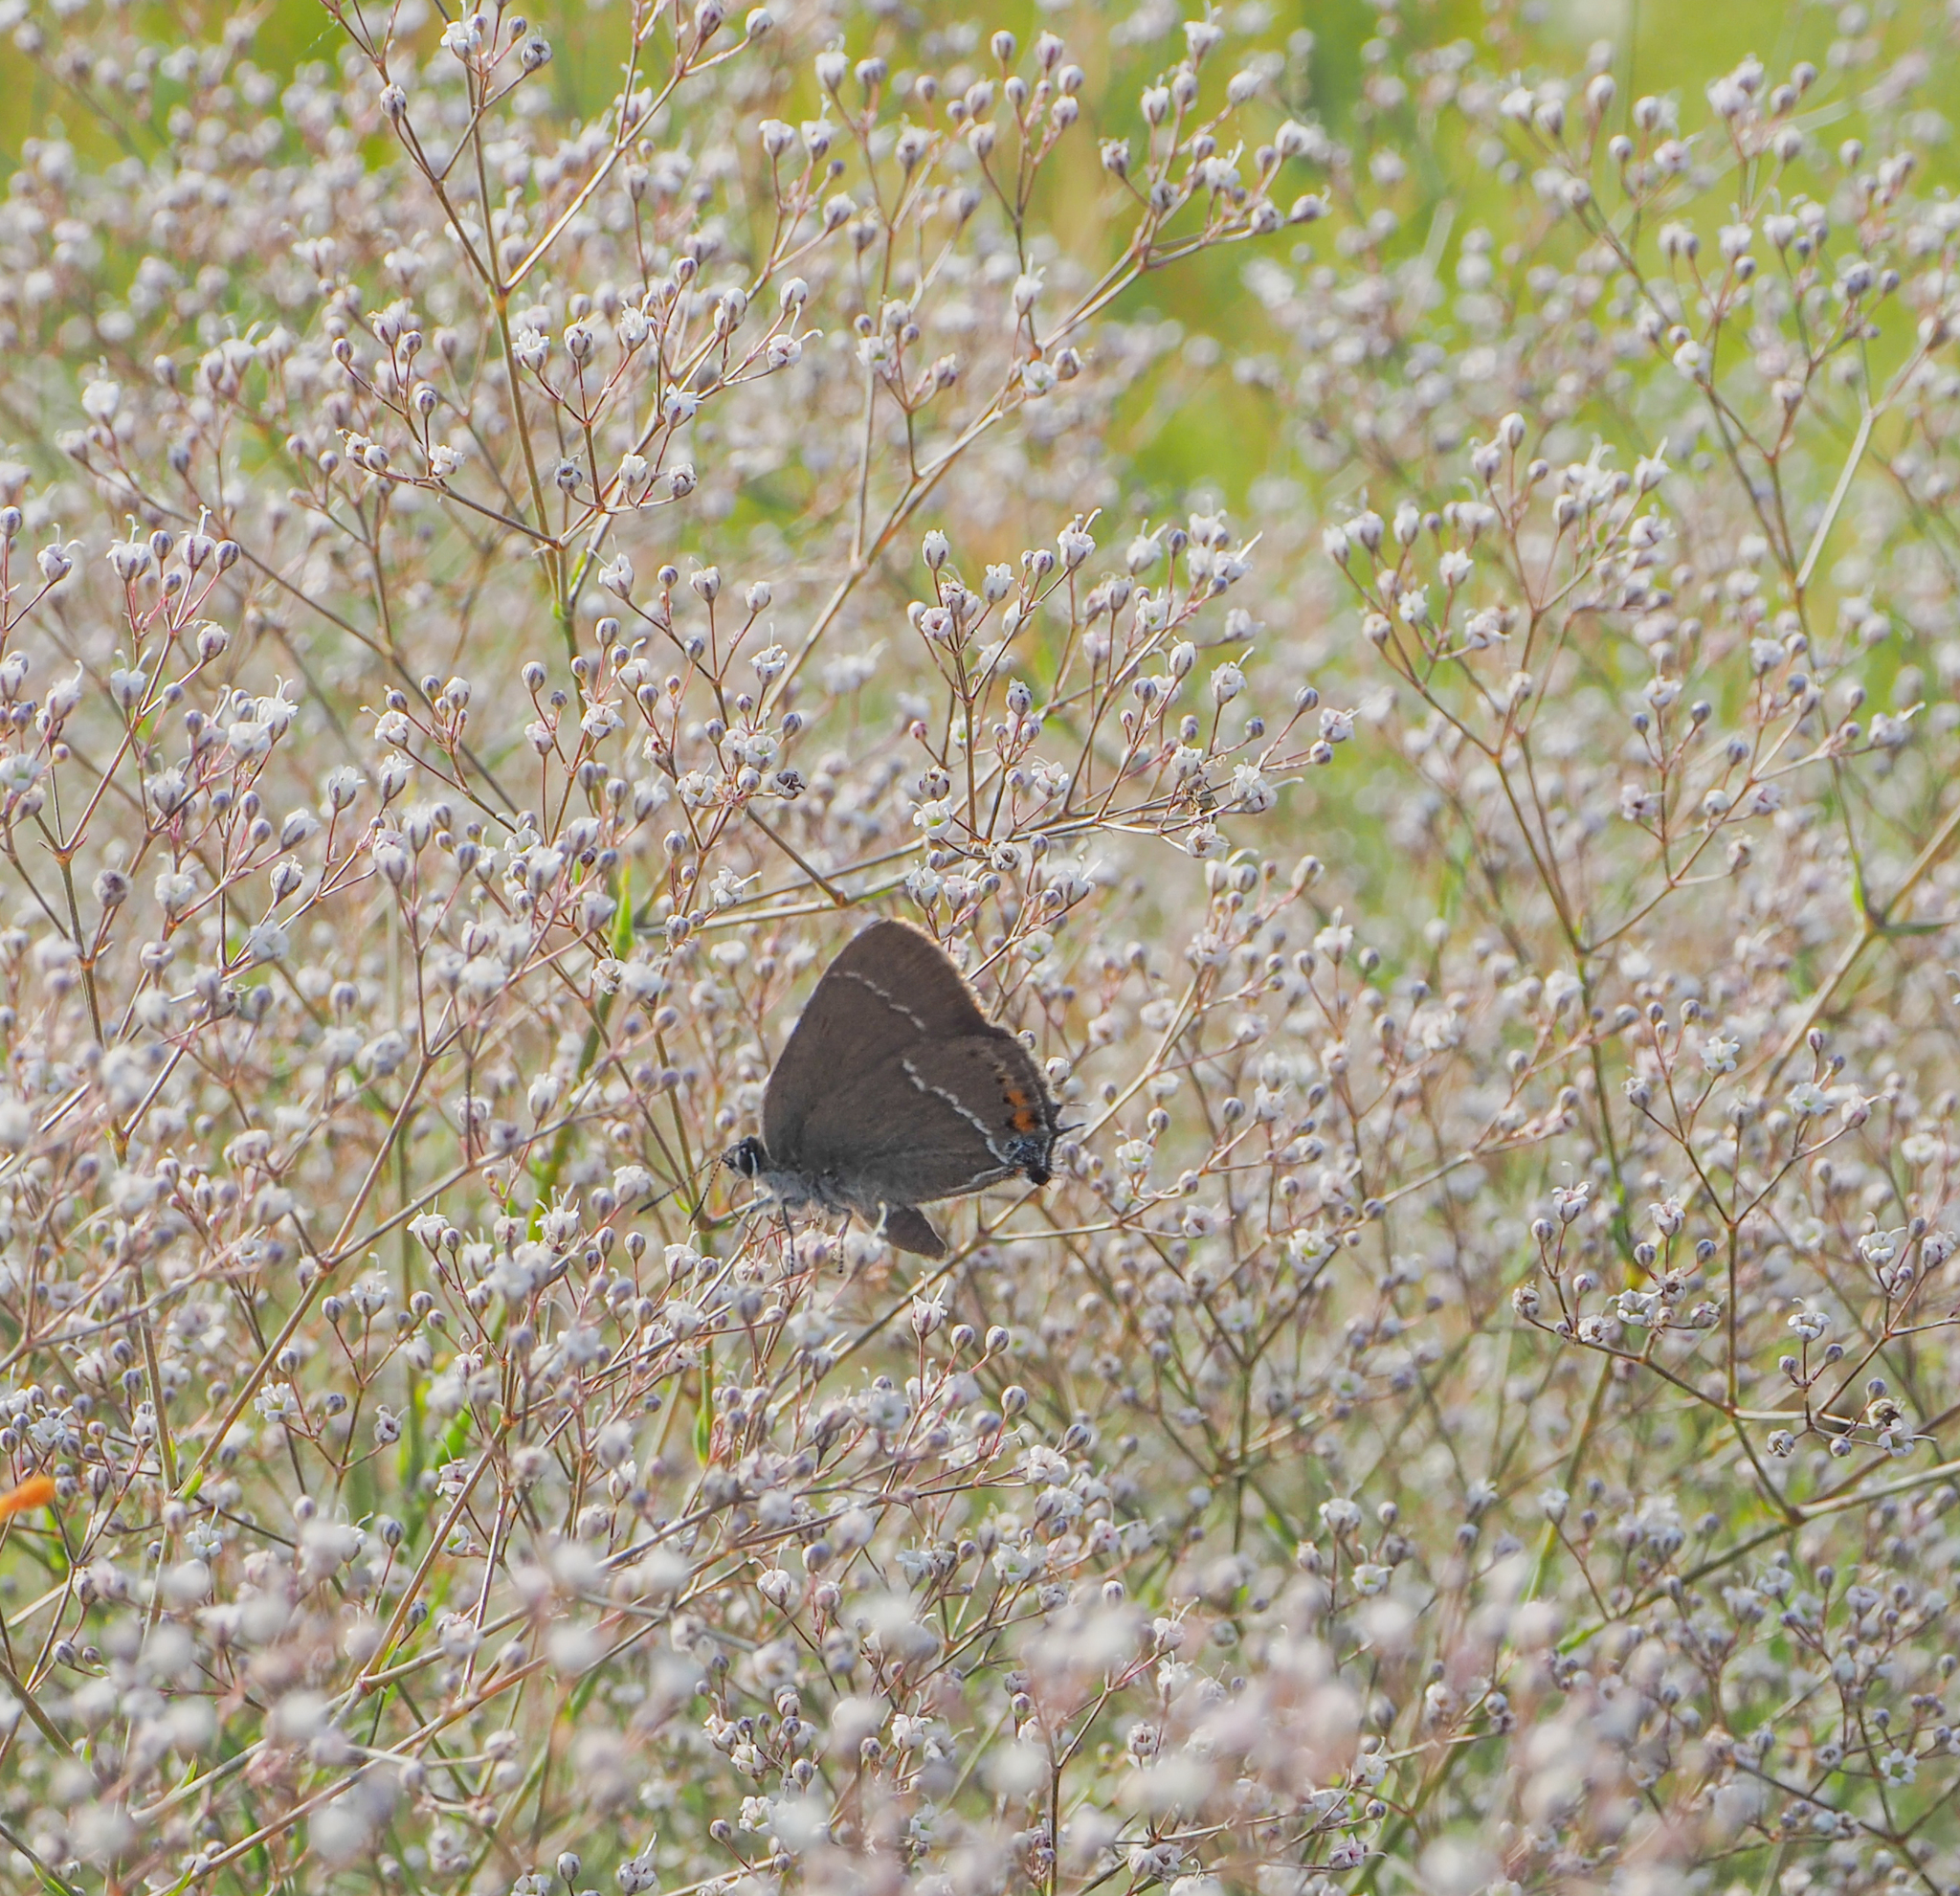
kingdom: Animalia
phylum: Arthropoda
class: Insecta
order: Lepidoptera
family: Lycaenidae
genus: Tuttiola
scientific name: Tuttiola spini
